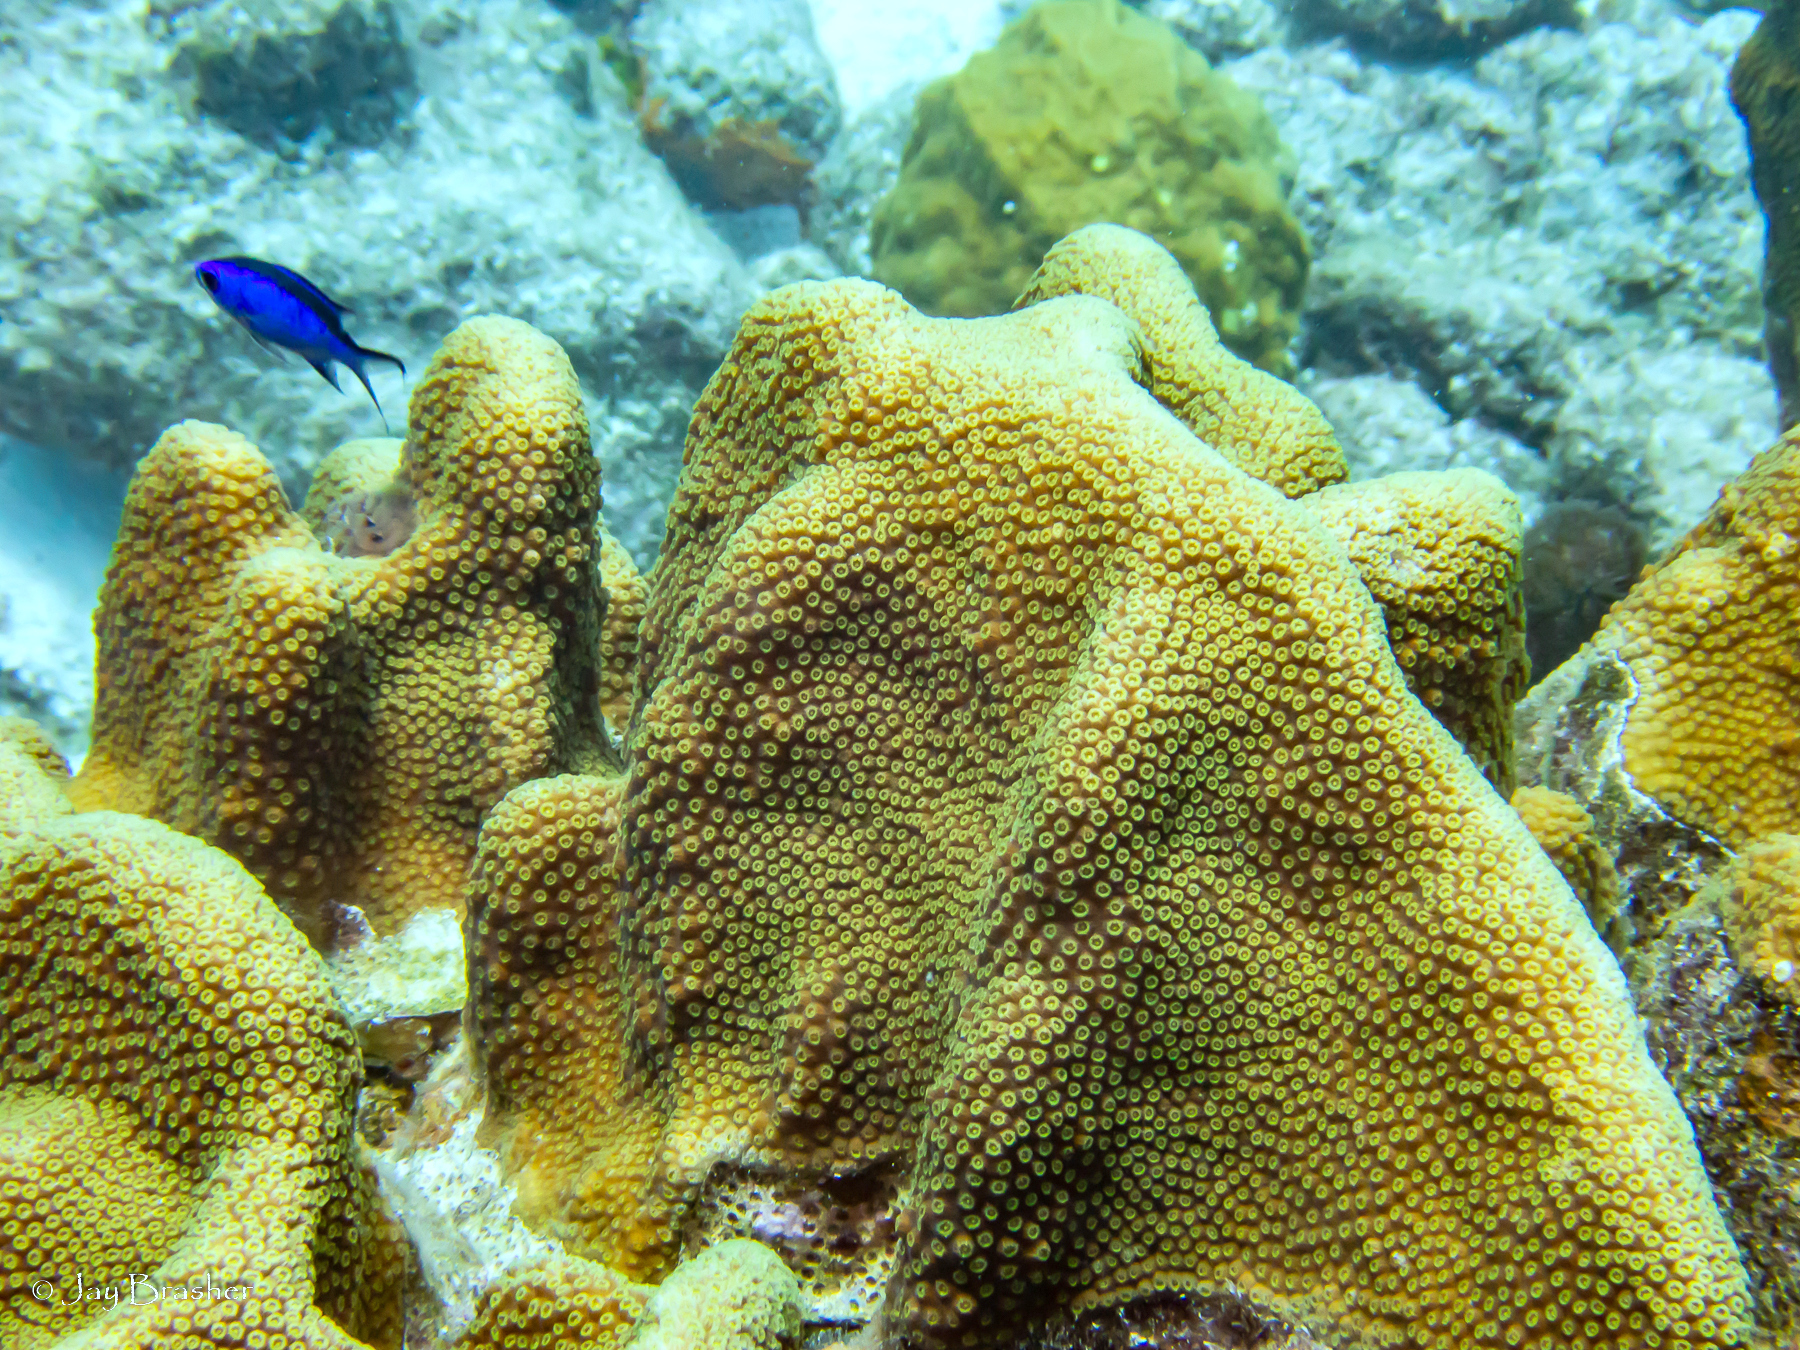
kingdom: Animalia
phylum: Chordata
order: Perciformes
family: Pomacentridae
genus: Chromis
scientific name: Chromis cyanea
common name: Blue chromis
